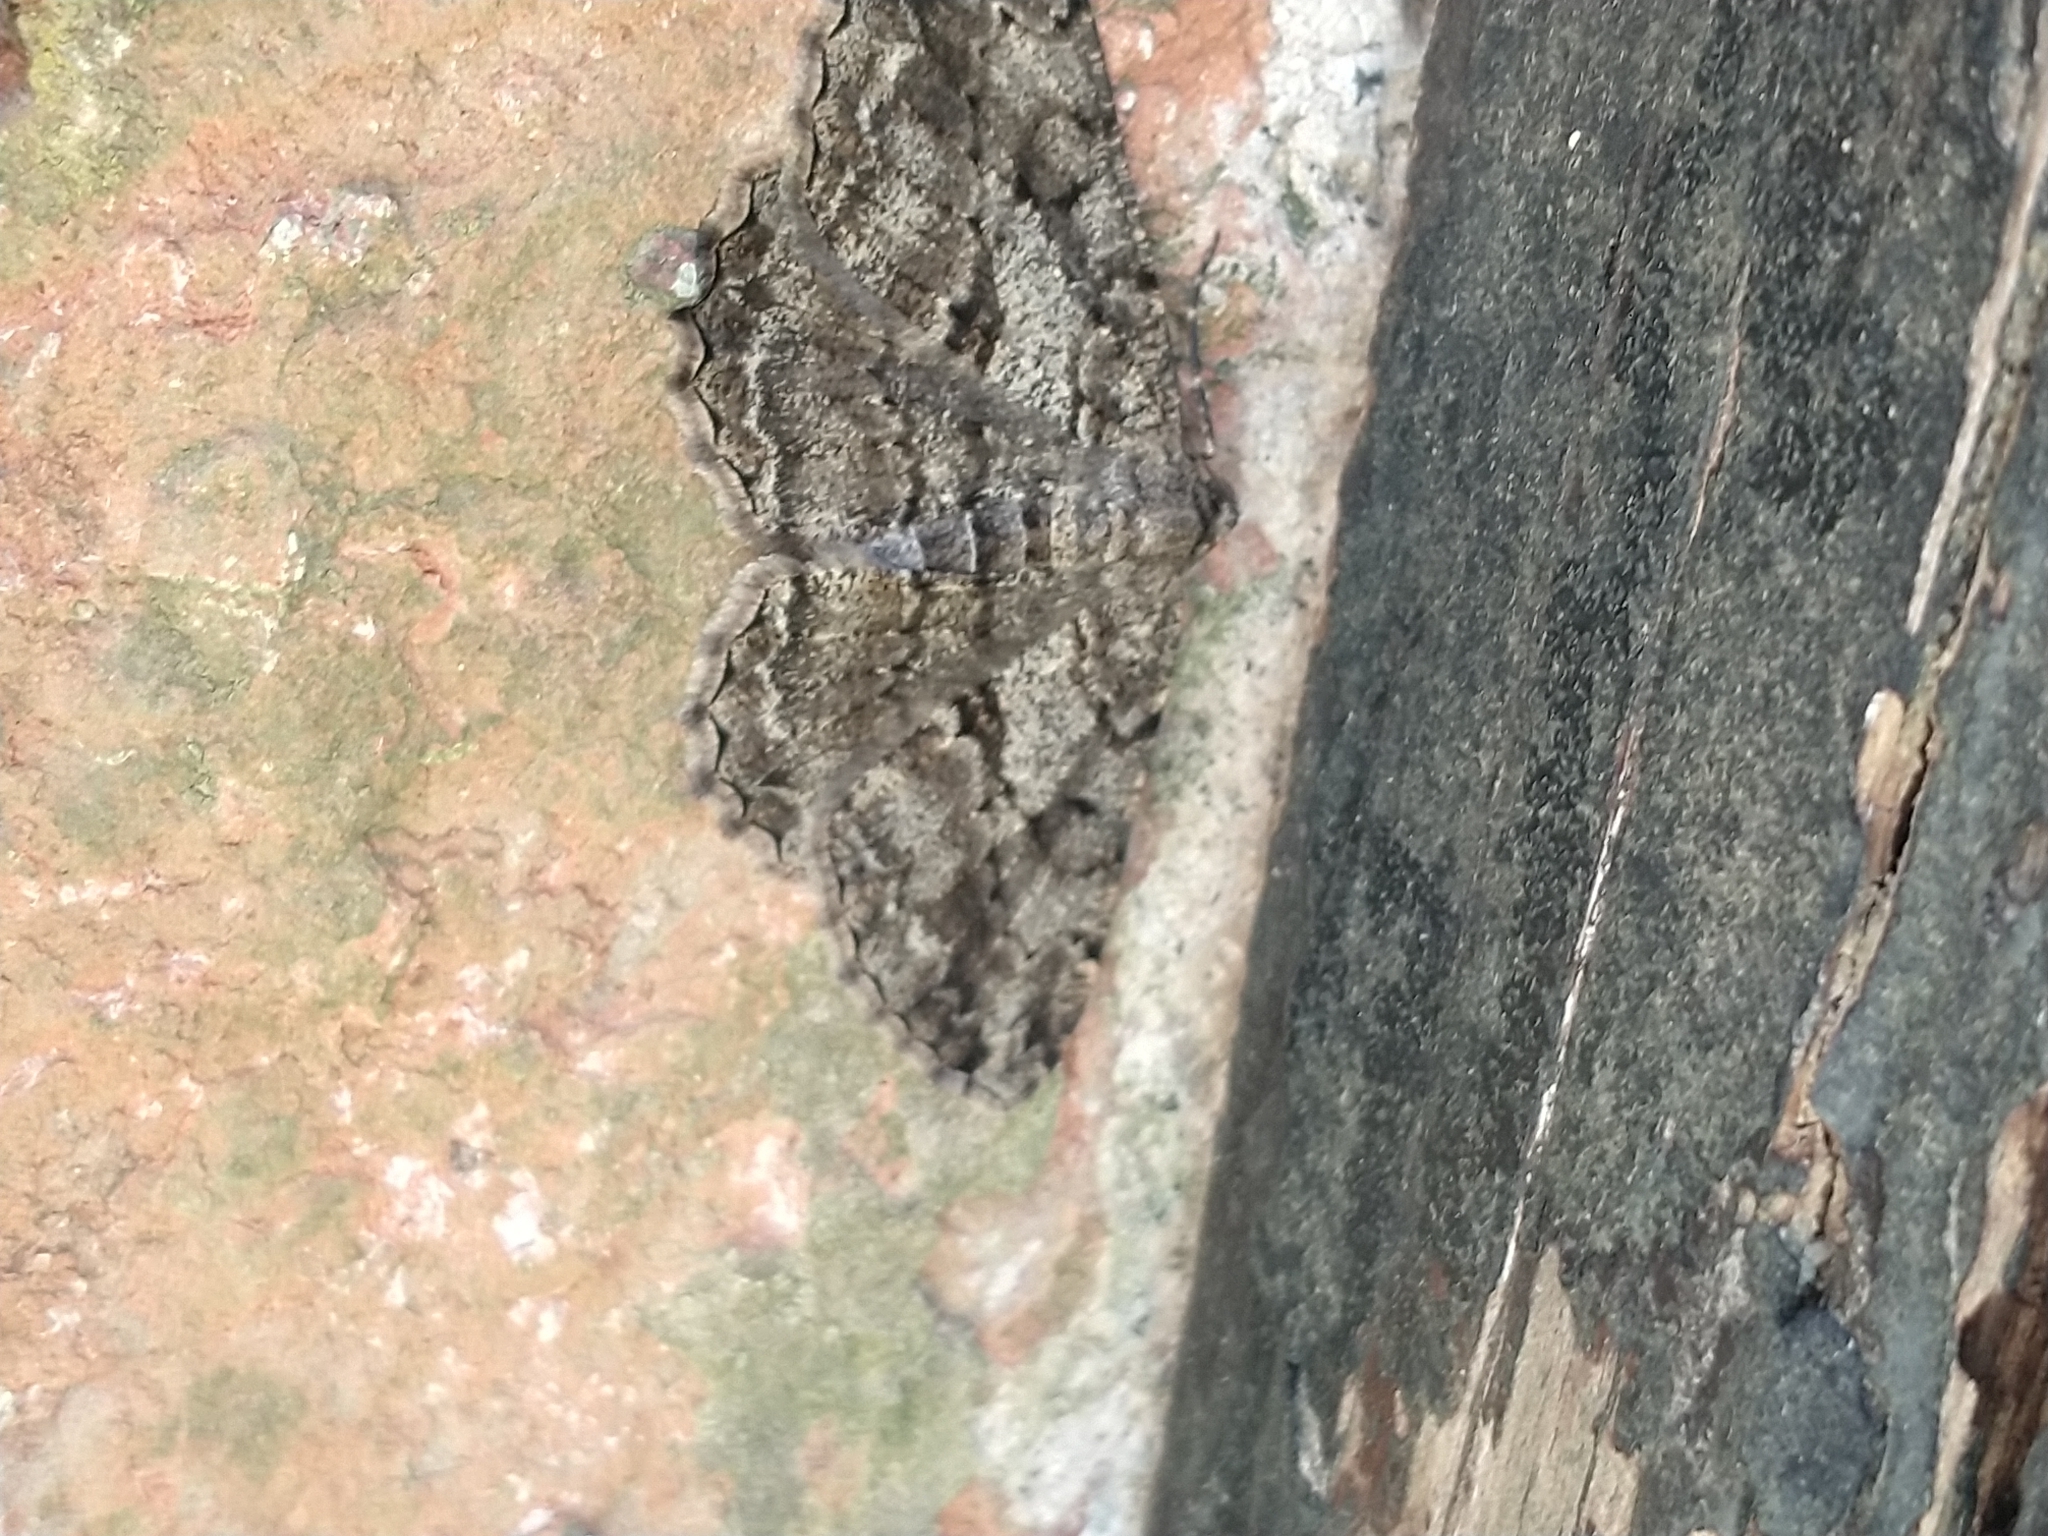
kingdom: Animalia
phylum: Arthropoda
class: Insecta
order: Lepidoptera
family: Geometridae
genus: Peribatodes
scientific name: Peribatodes rhomboidaria
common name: Willow beauty
